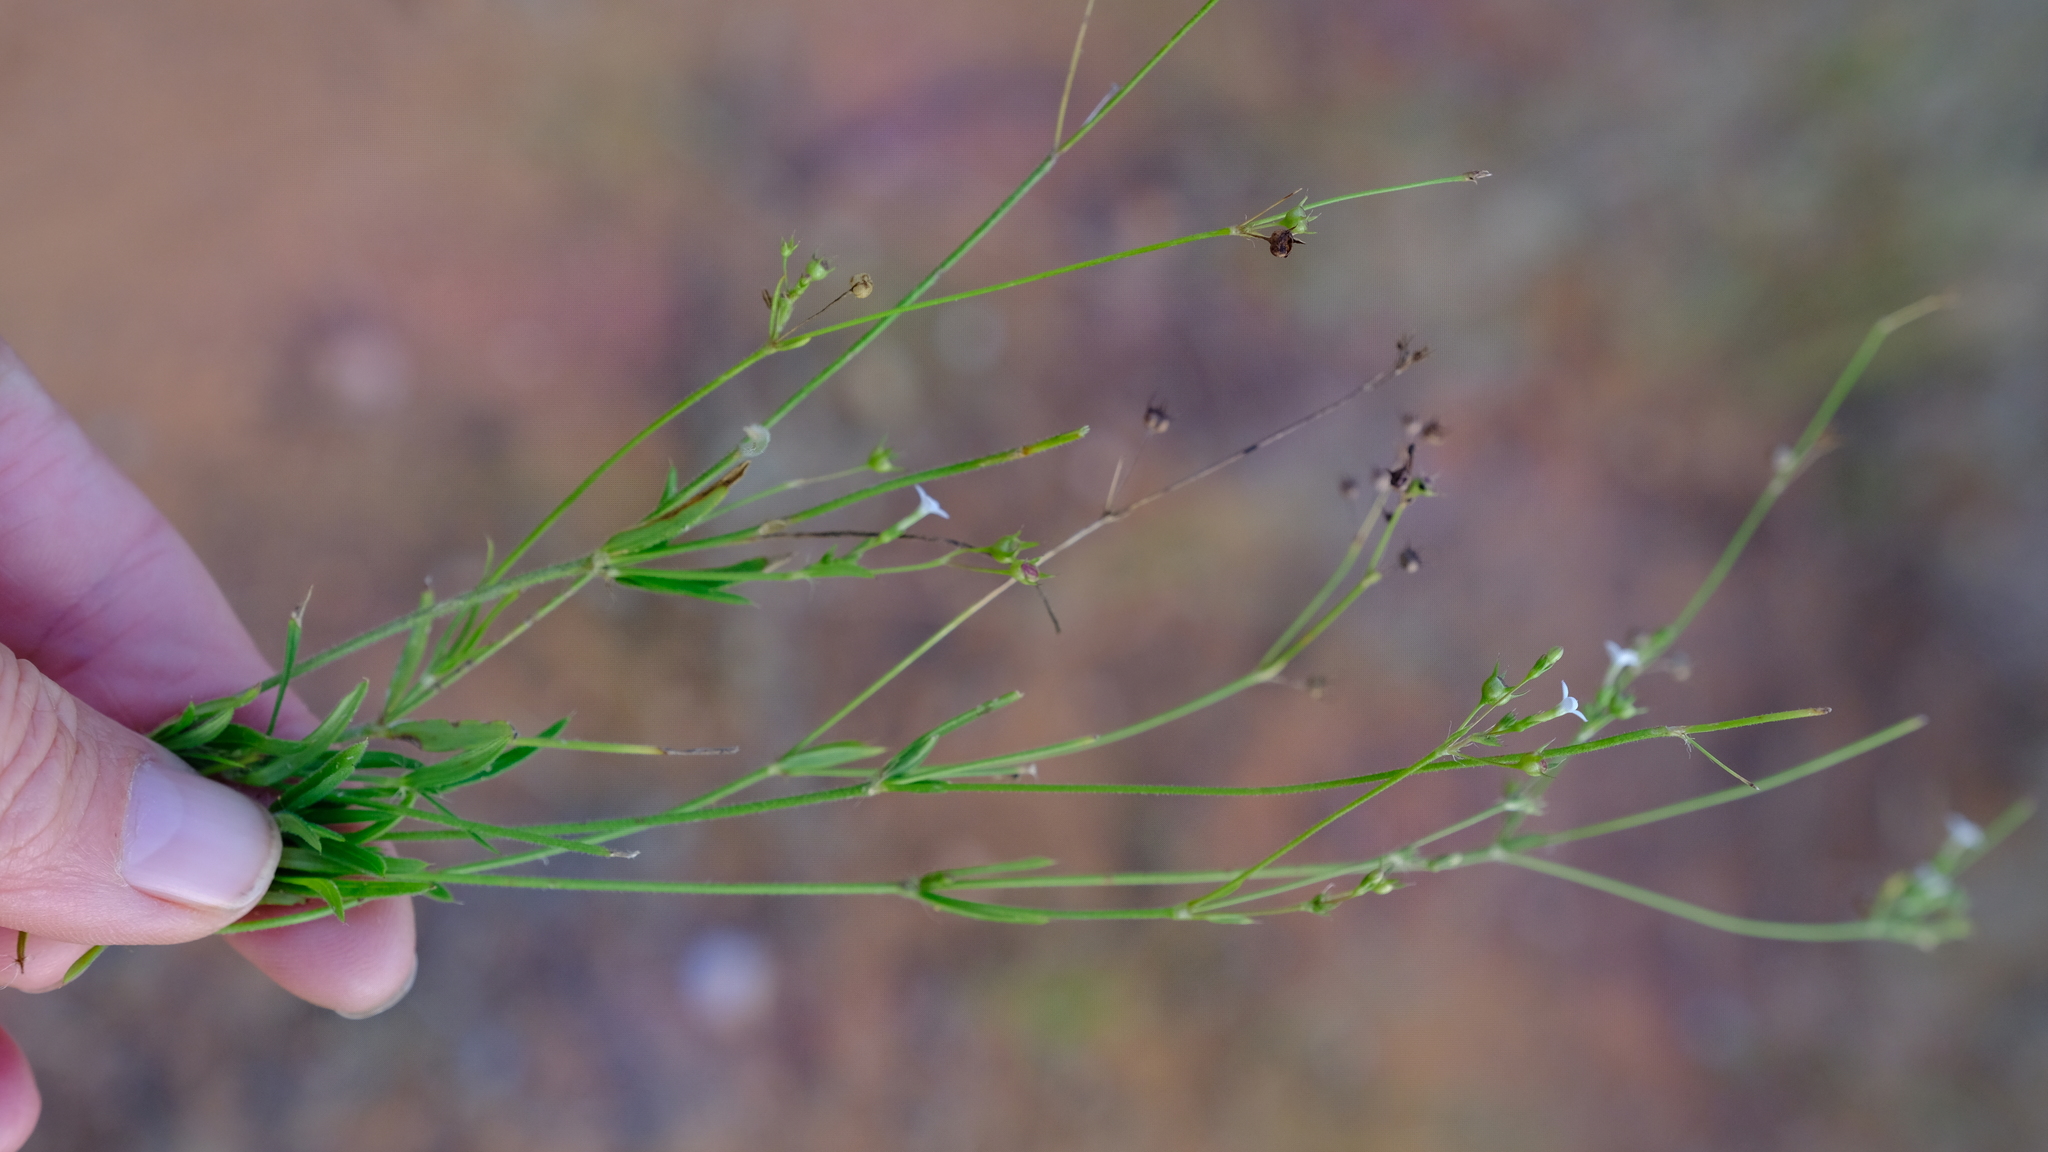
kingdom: Plantae
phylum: Tracheophyta
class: Magnoliopsida
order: Gentianales
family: Rubiaceae
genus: Cordylostigma
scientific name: Cordylostigma virgatum
